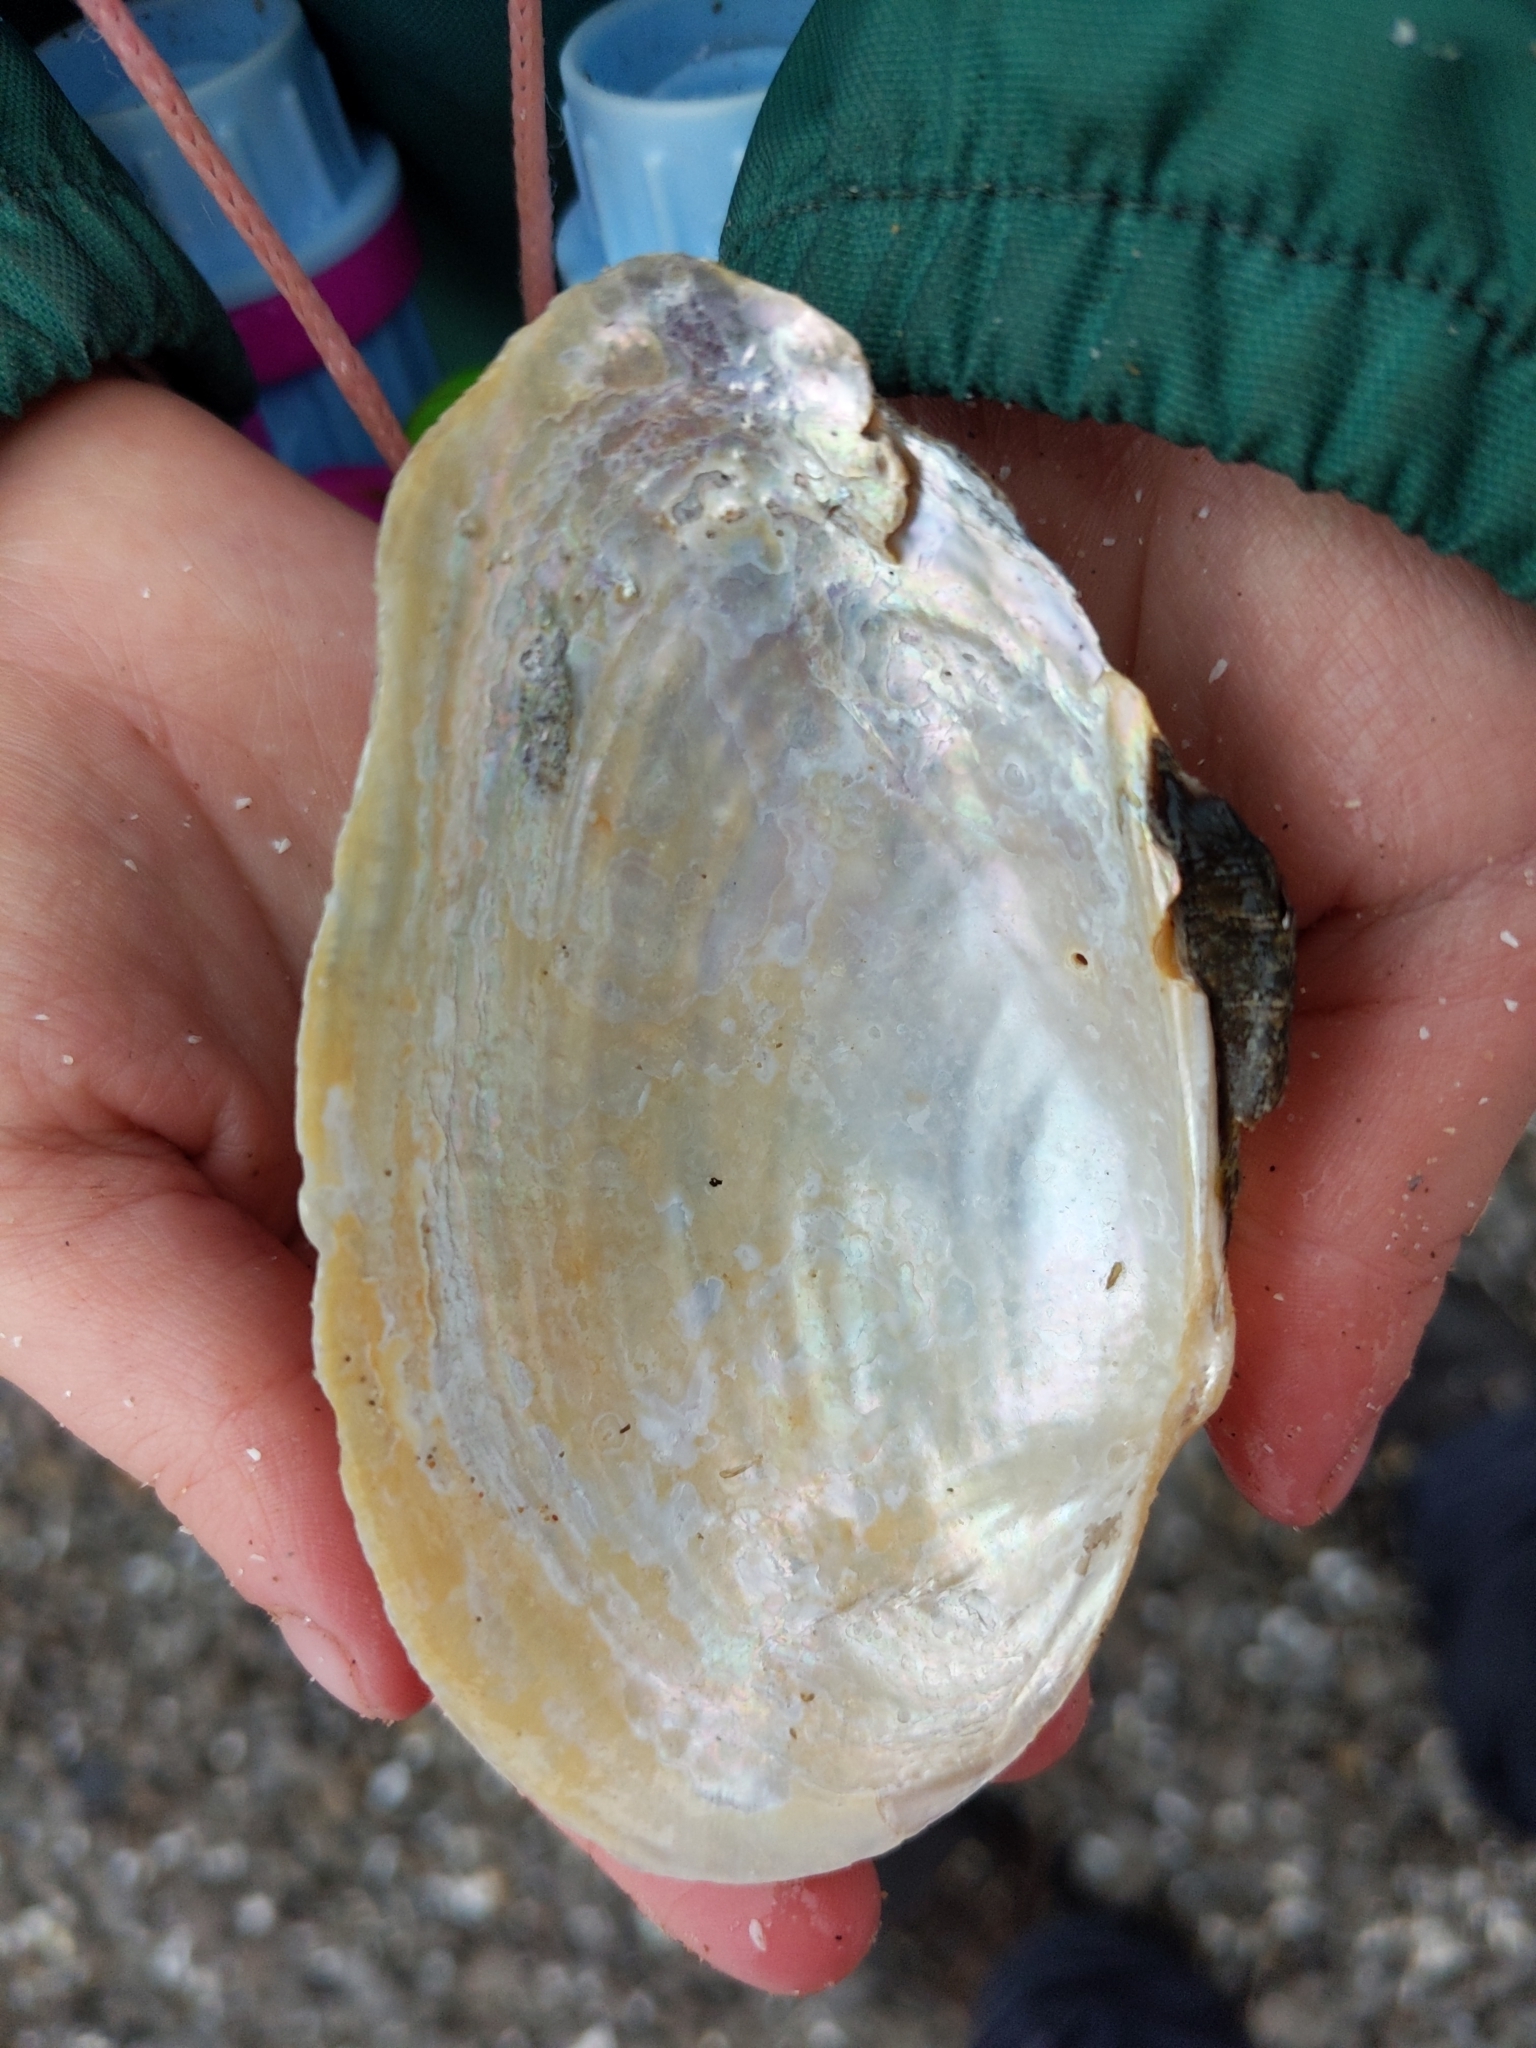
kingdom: Animalia
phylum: Mollusca
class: Bivalvia
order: Unionida
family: Unionidae
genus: Pyganodon
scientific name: Pyganodon grandis
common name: Giant floater
